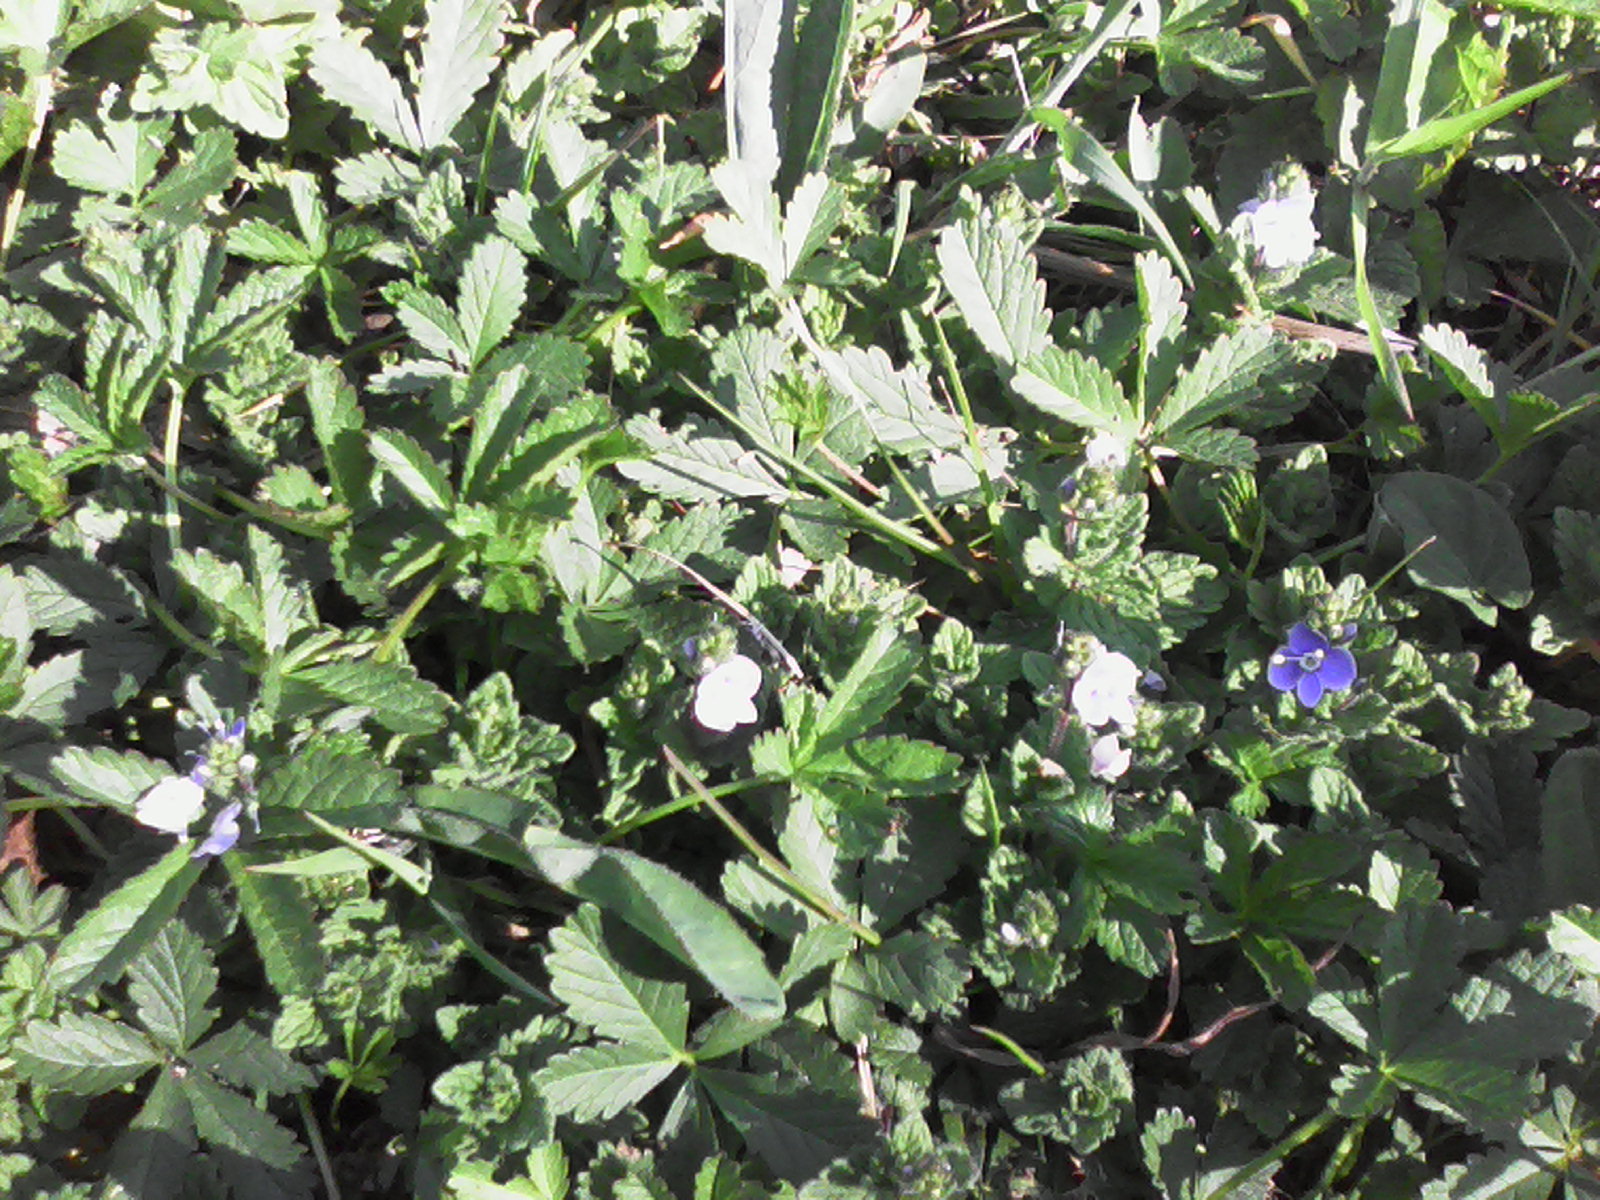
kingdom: Plantae
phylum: Tracheophyta
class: Magnoliopsida
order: Lamiales
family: Plantaginaceae
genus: Veronica
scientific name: Veronica chamaedrys
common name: Germander speedwell
